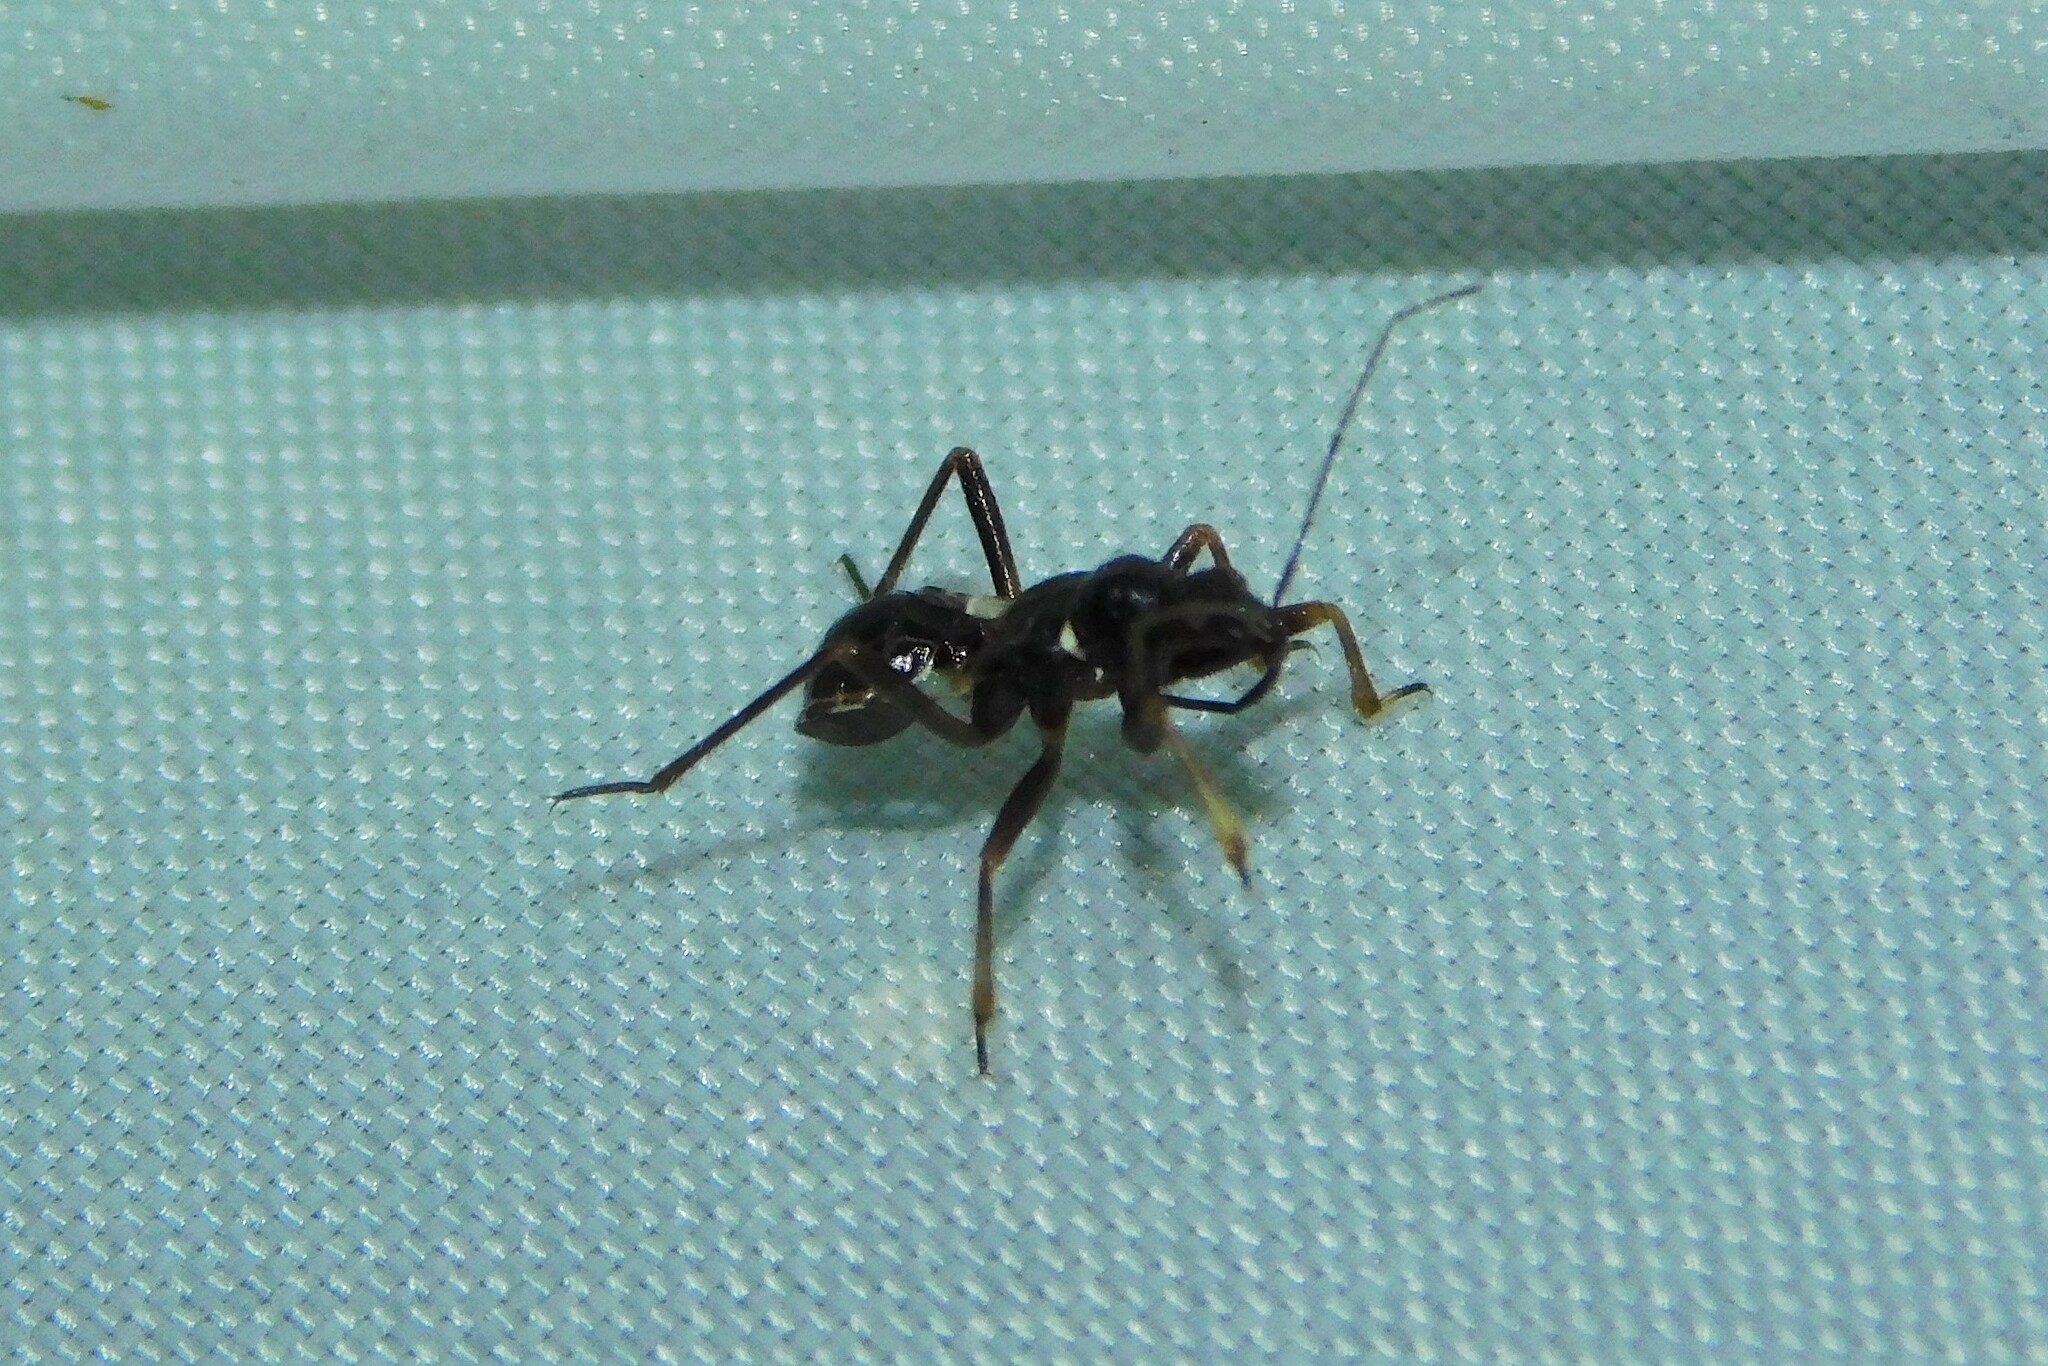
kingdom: Animalia
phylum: Arthropoda
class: Insecta
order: Hemiptera
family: Nabidae
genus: Himacerus
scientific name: Himacerus mirmicoides
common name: Ant damsel bug
